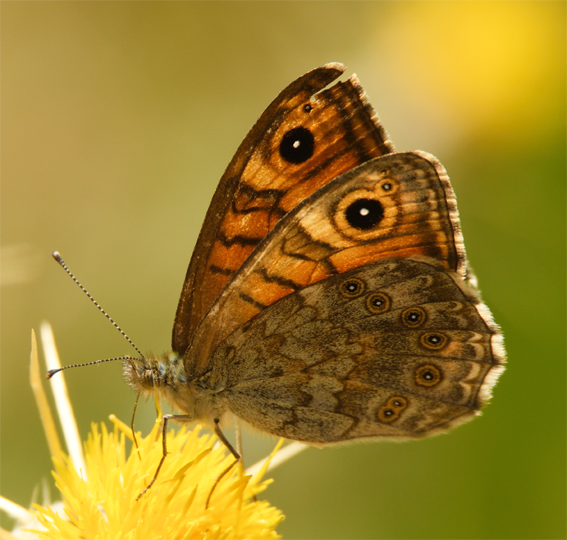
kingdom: Animalia
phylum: Arthropoda
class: Insecta
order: Lepidoptera
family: Nymphalidae
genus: Pararge
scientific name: Pararge Lasiommata megera
